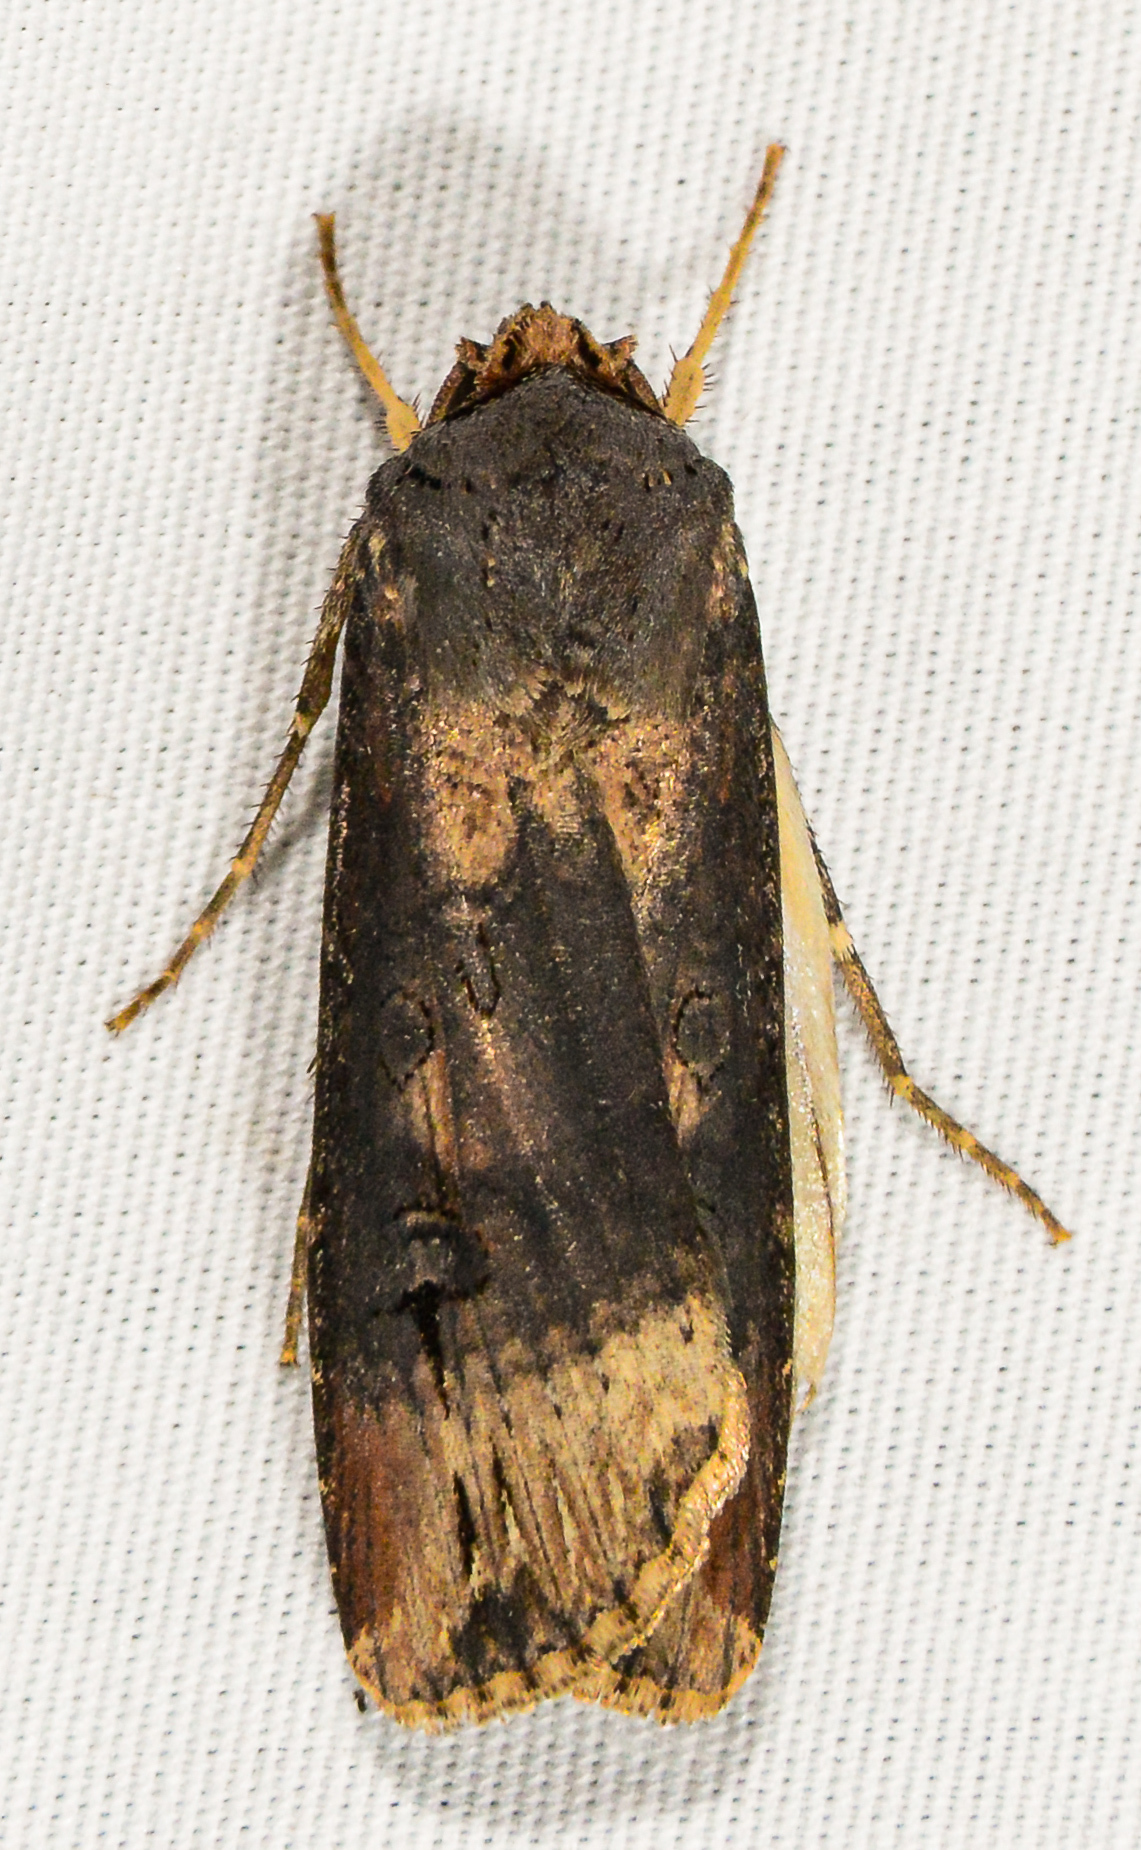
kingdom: Animalia
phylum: Arthropoda
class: Insecta
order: Lepidoptera
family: Noctuidae
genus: Agrotis
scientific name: Agrotis ipsilon
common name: Dark sword-grass
